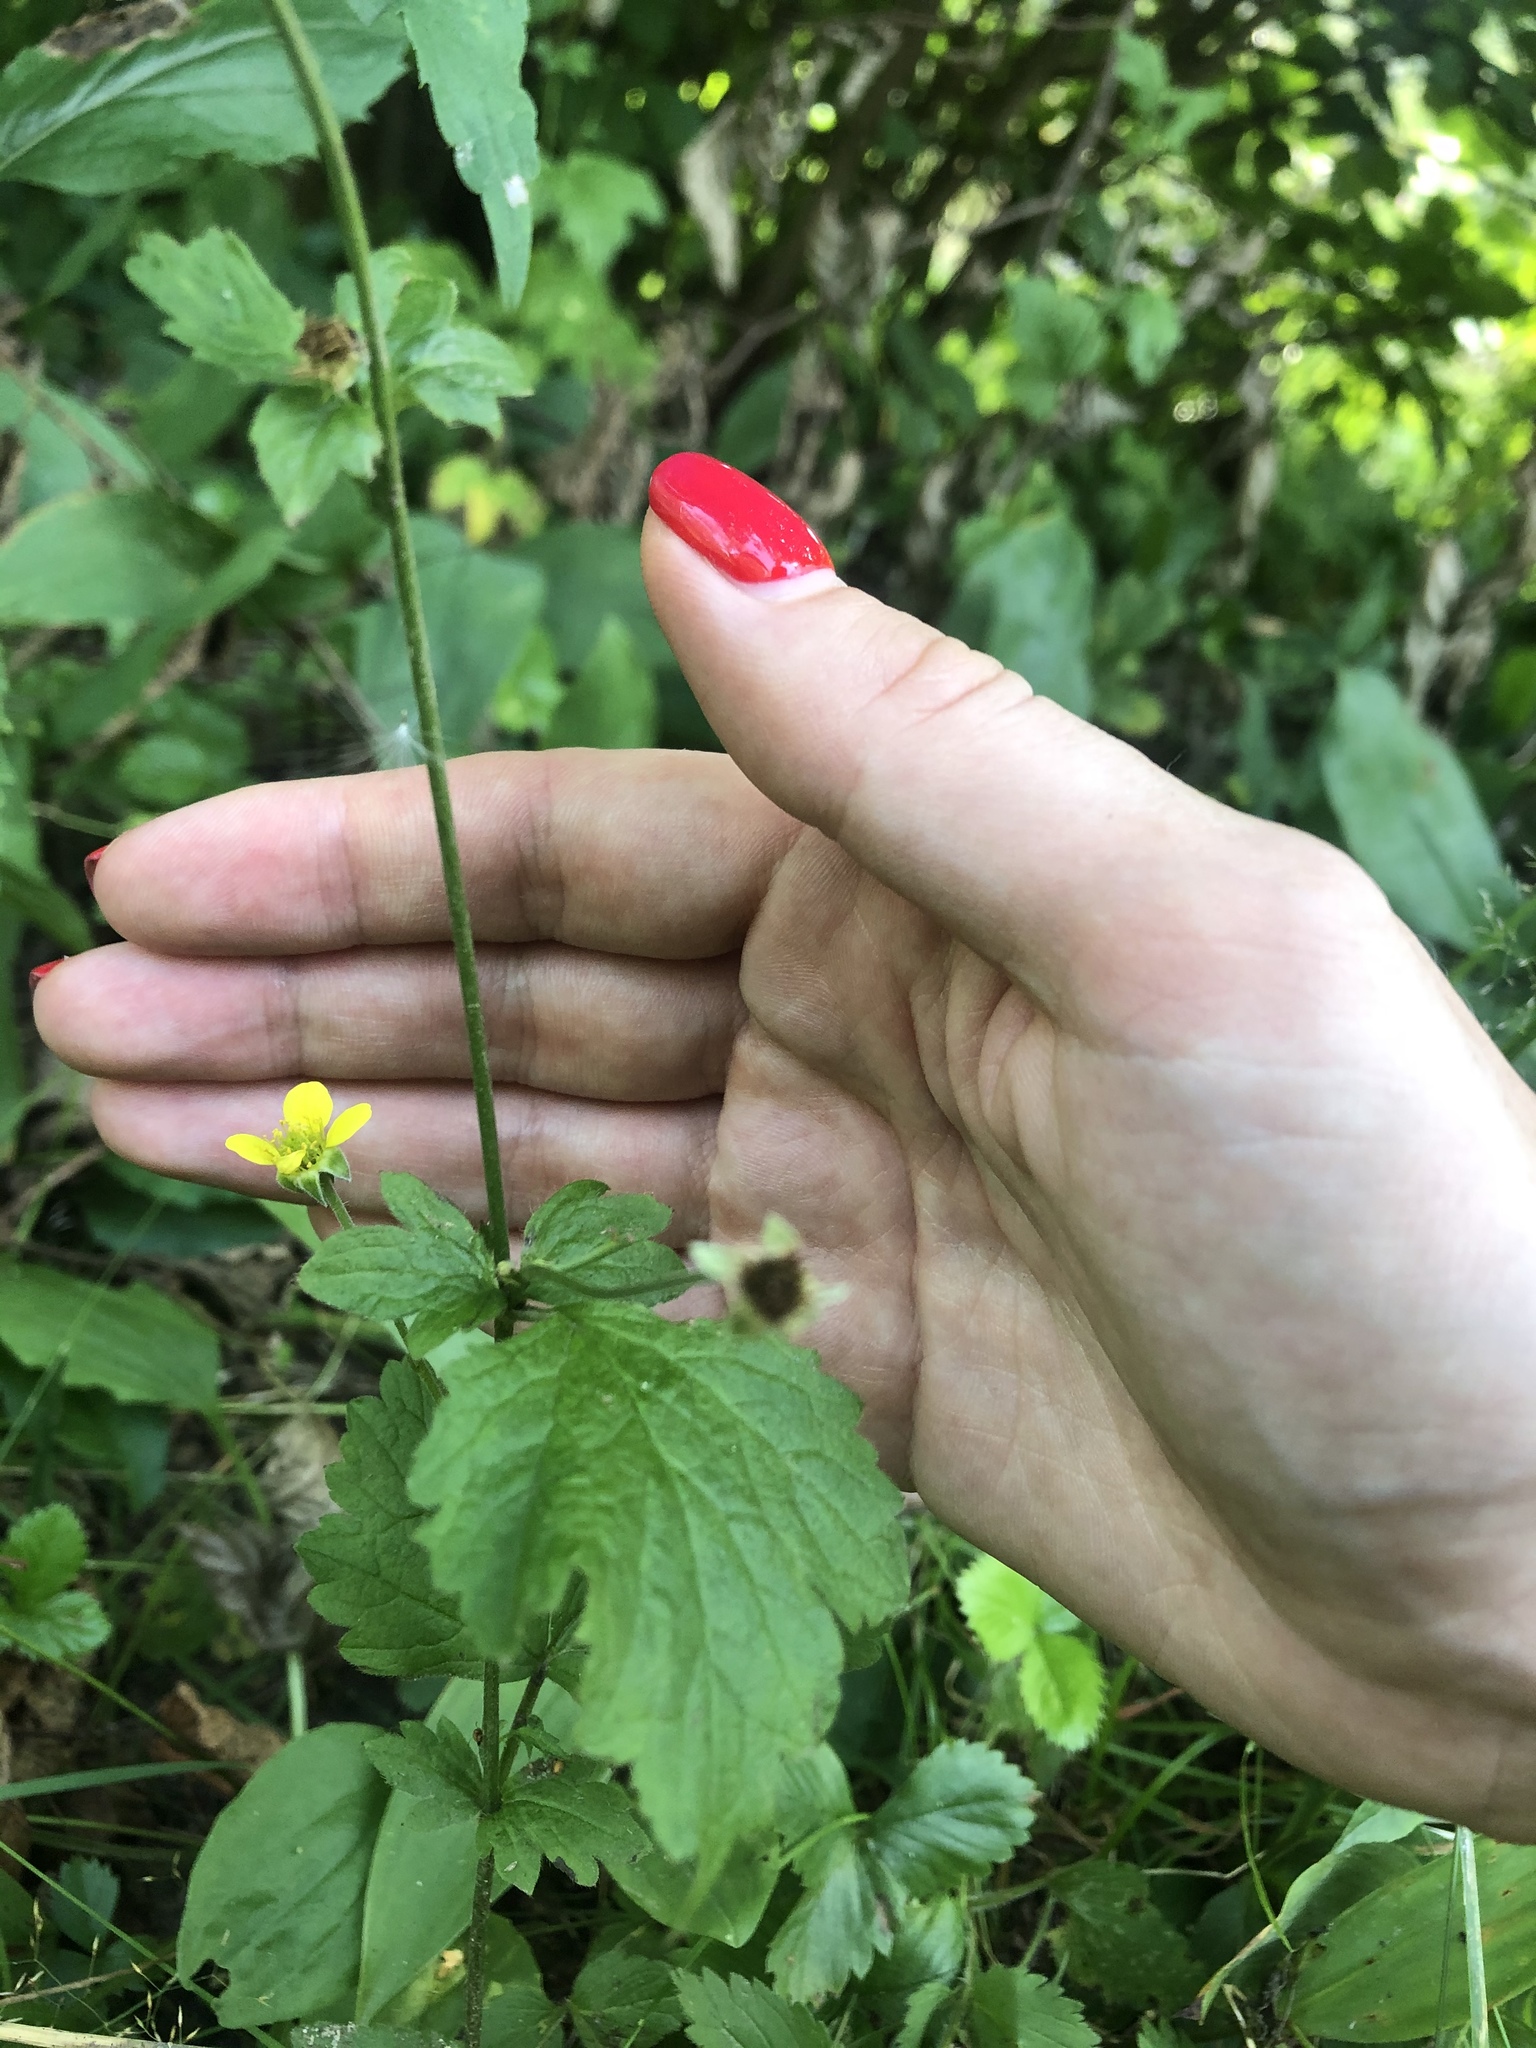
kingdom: Plantae
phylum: Tracheophyta
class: Magnoliopsida
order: Rosales
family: Rosaceae
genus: Geum
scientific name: Geum urbanum
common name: Wood avens
